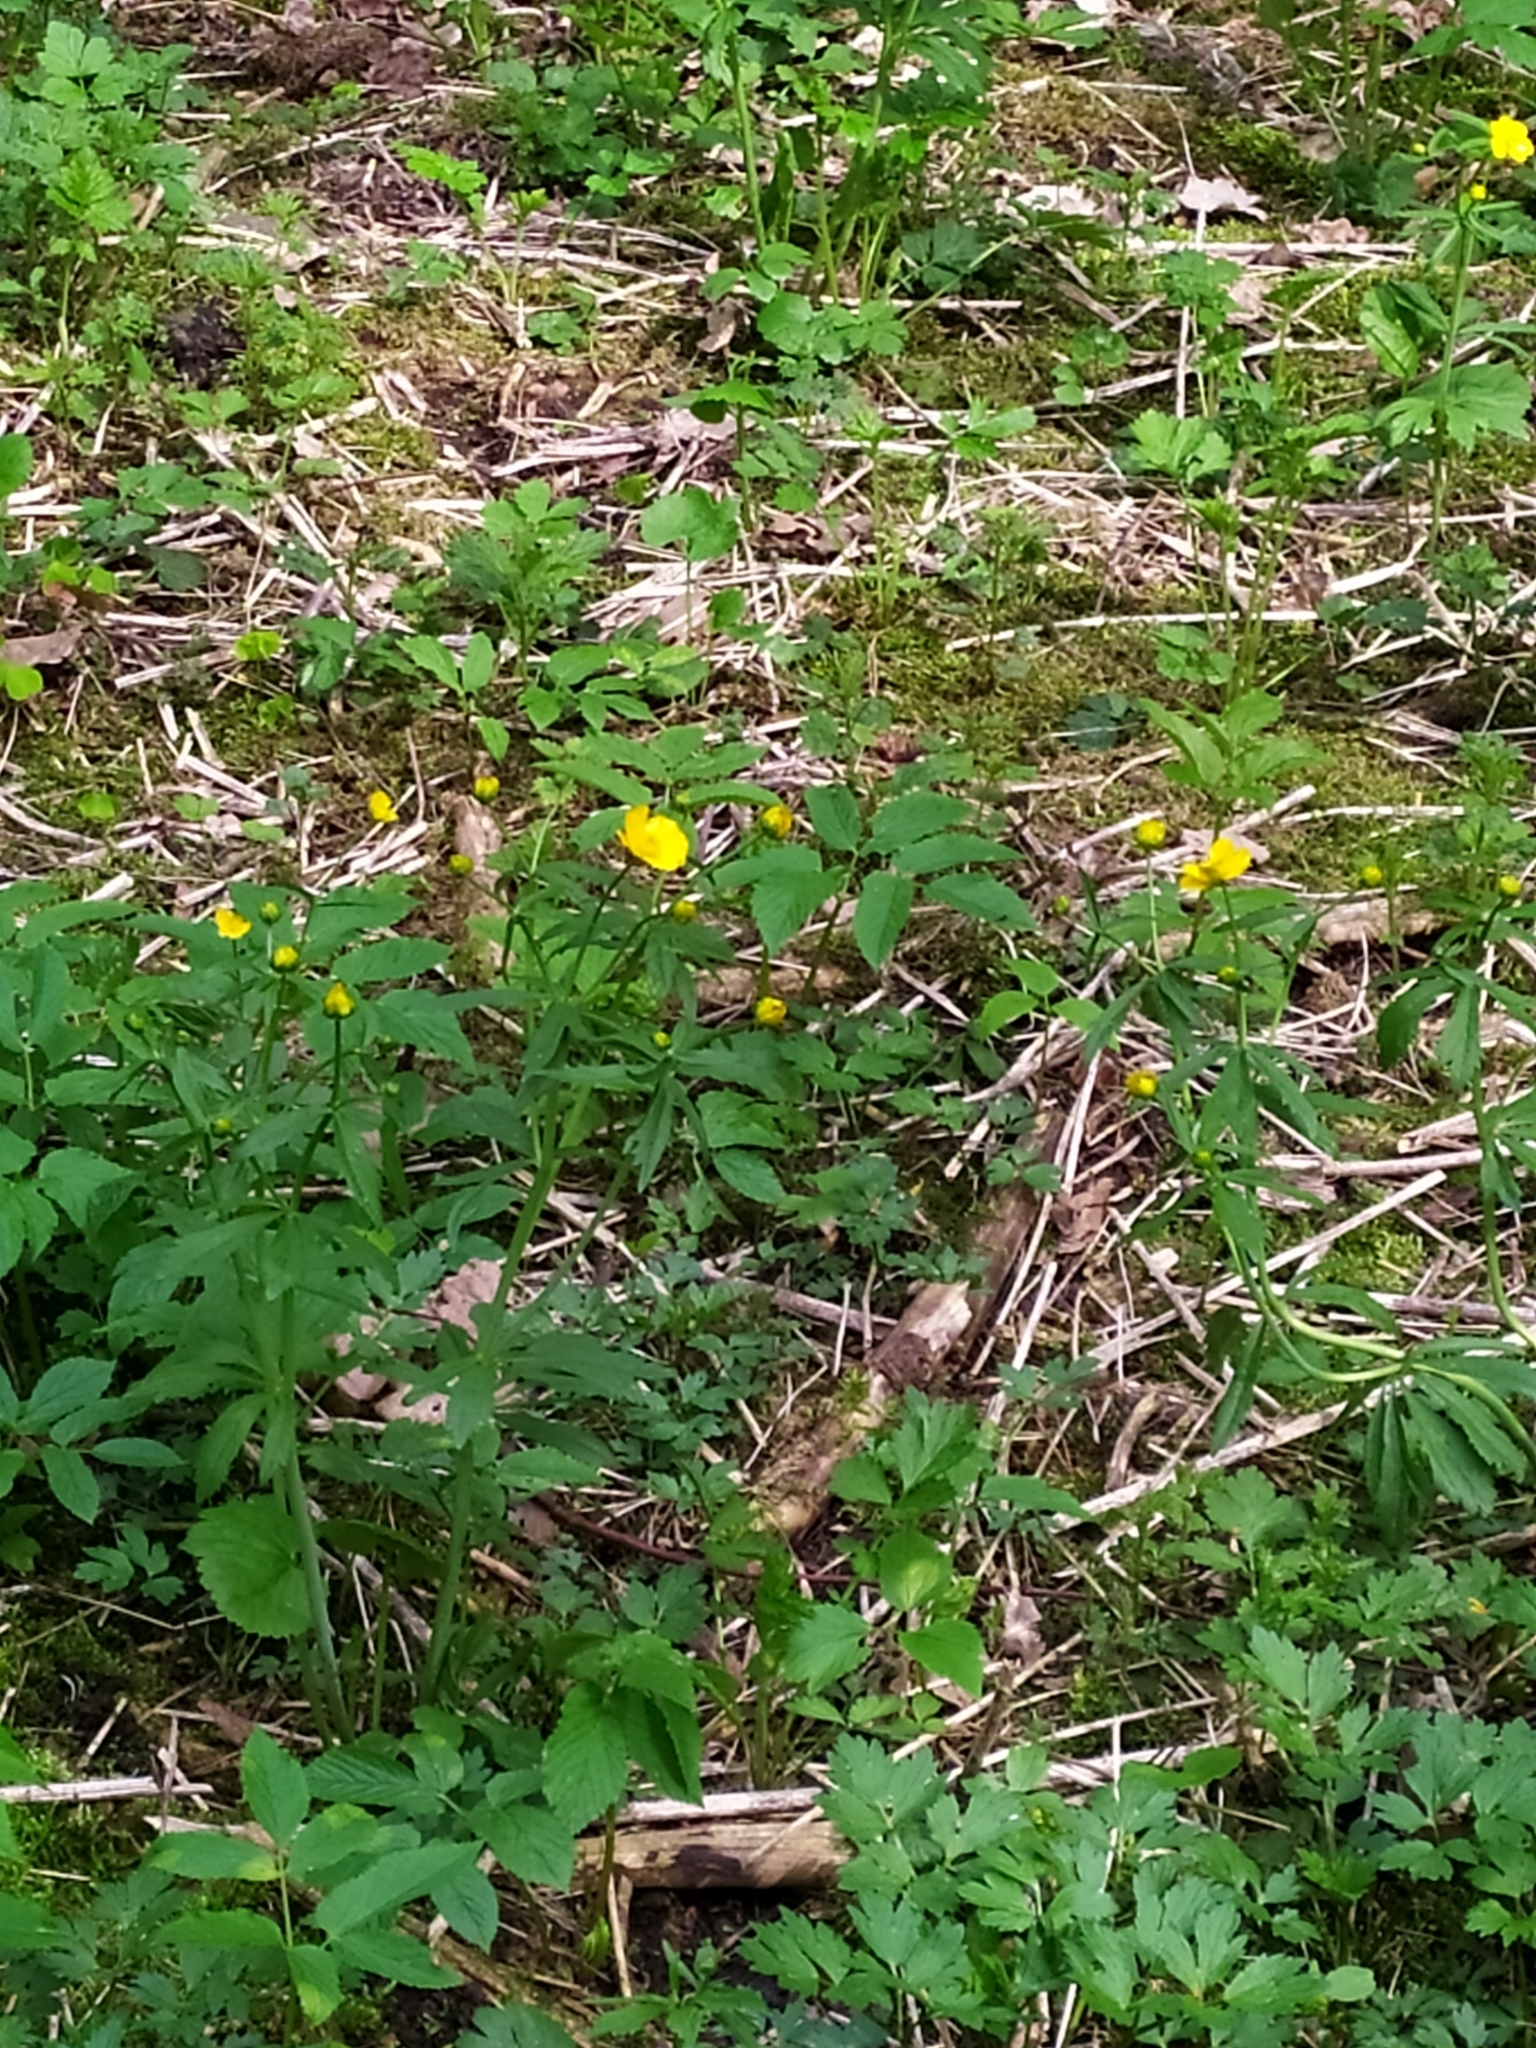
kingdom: Plantae
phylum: Tracheophyta
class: Magnoliopsida
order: Ranunculales
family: Ranunculaceae
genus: Ranunculus
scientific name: Ranunculus cassubicus
